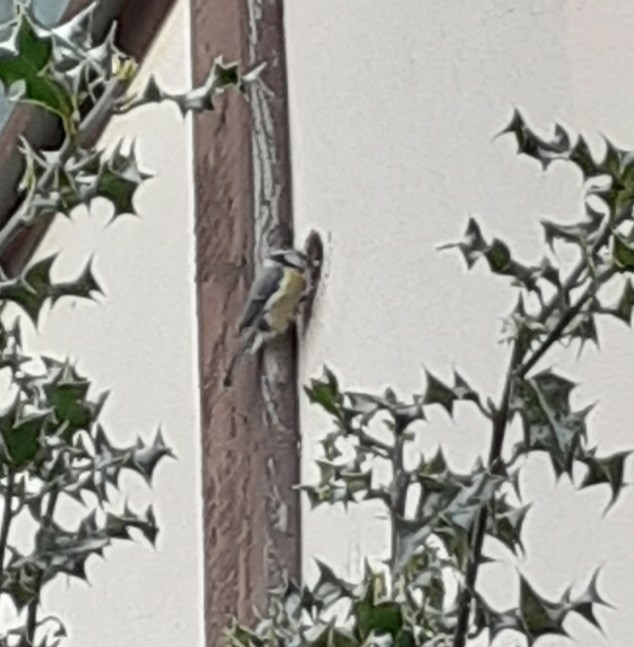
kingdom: Animalia
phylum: Chordata
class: Aves
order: Passeriformes
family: Paridae
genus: Cyanistes
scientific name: Cyanistes caeruleus
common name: Eurasian blue tit
